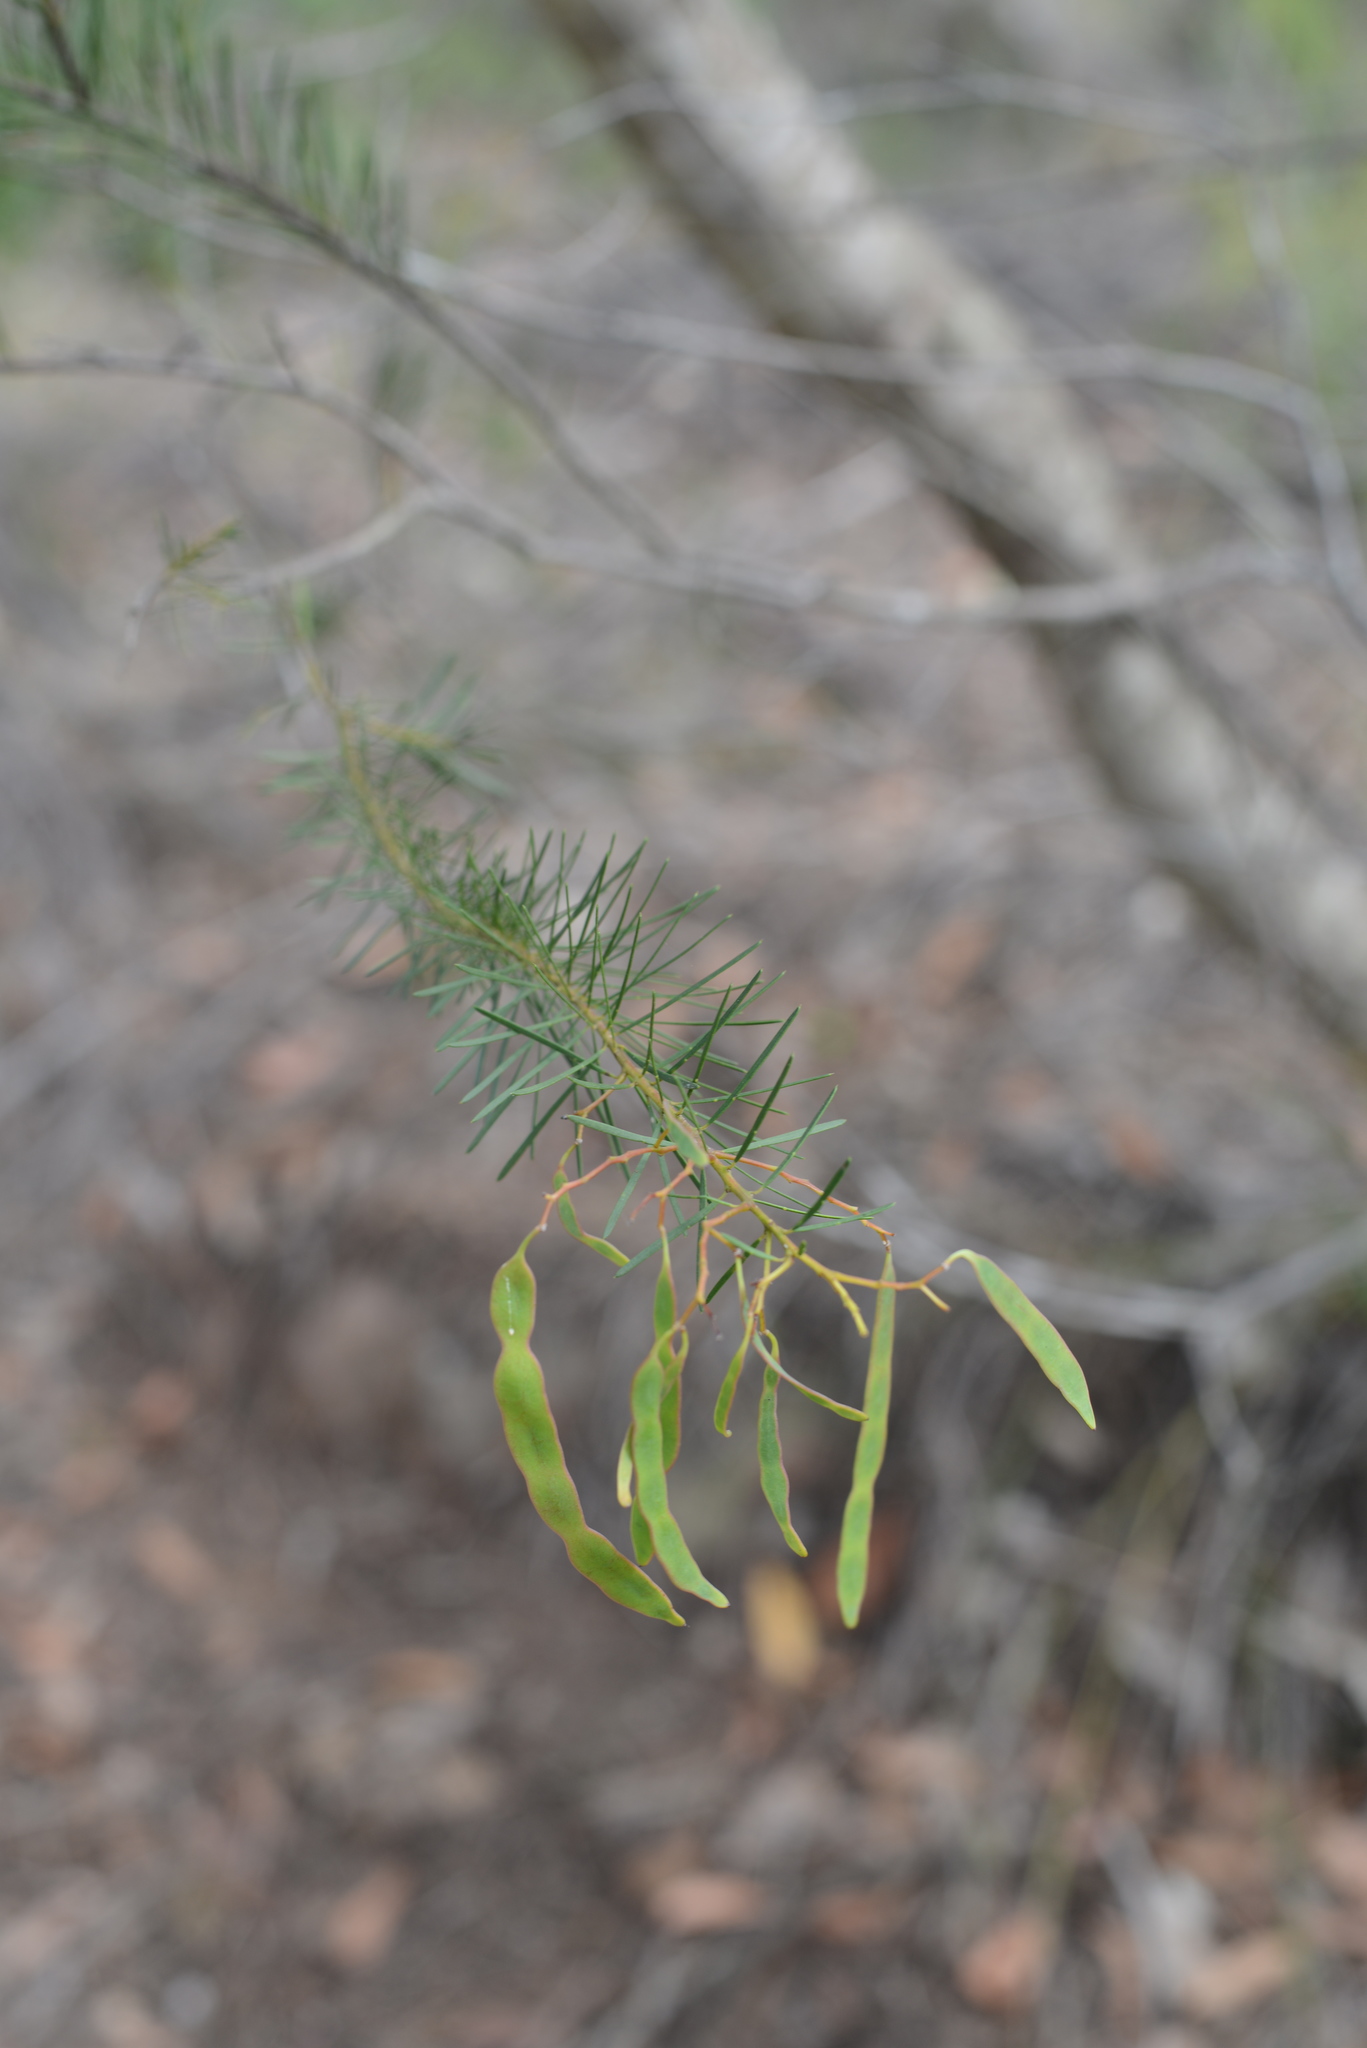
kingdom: Plantae
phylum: Tracheophyta
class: Magnoliopsida
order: Fabales
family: Fabaceae
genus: Acacia
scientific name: Acacia linifolia
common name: White wattle
